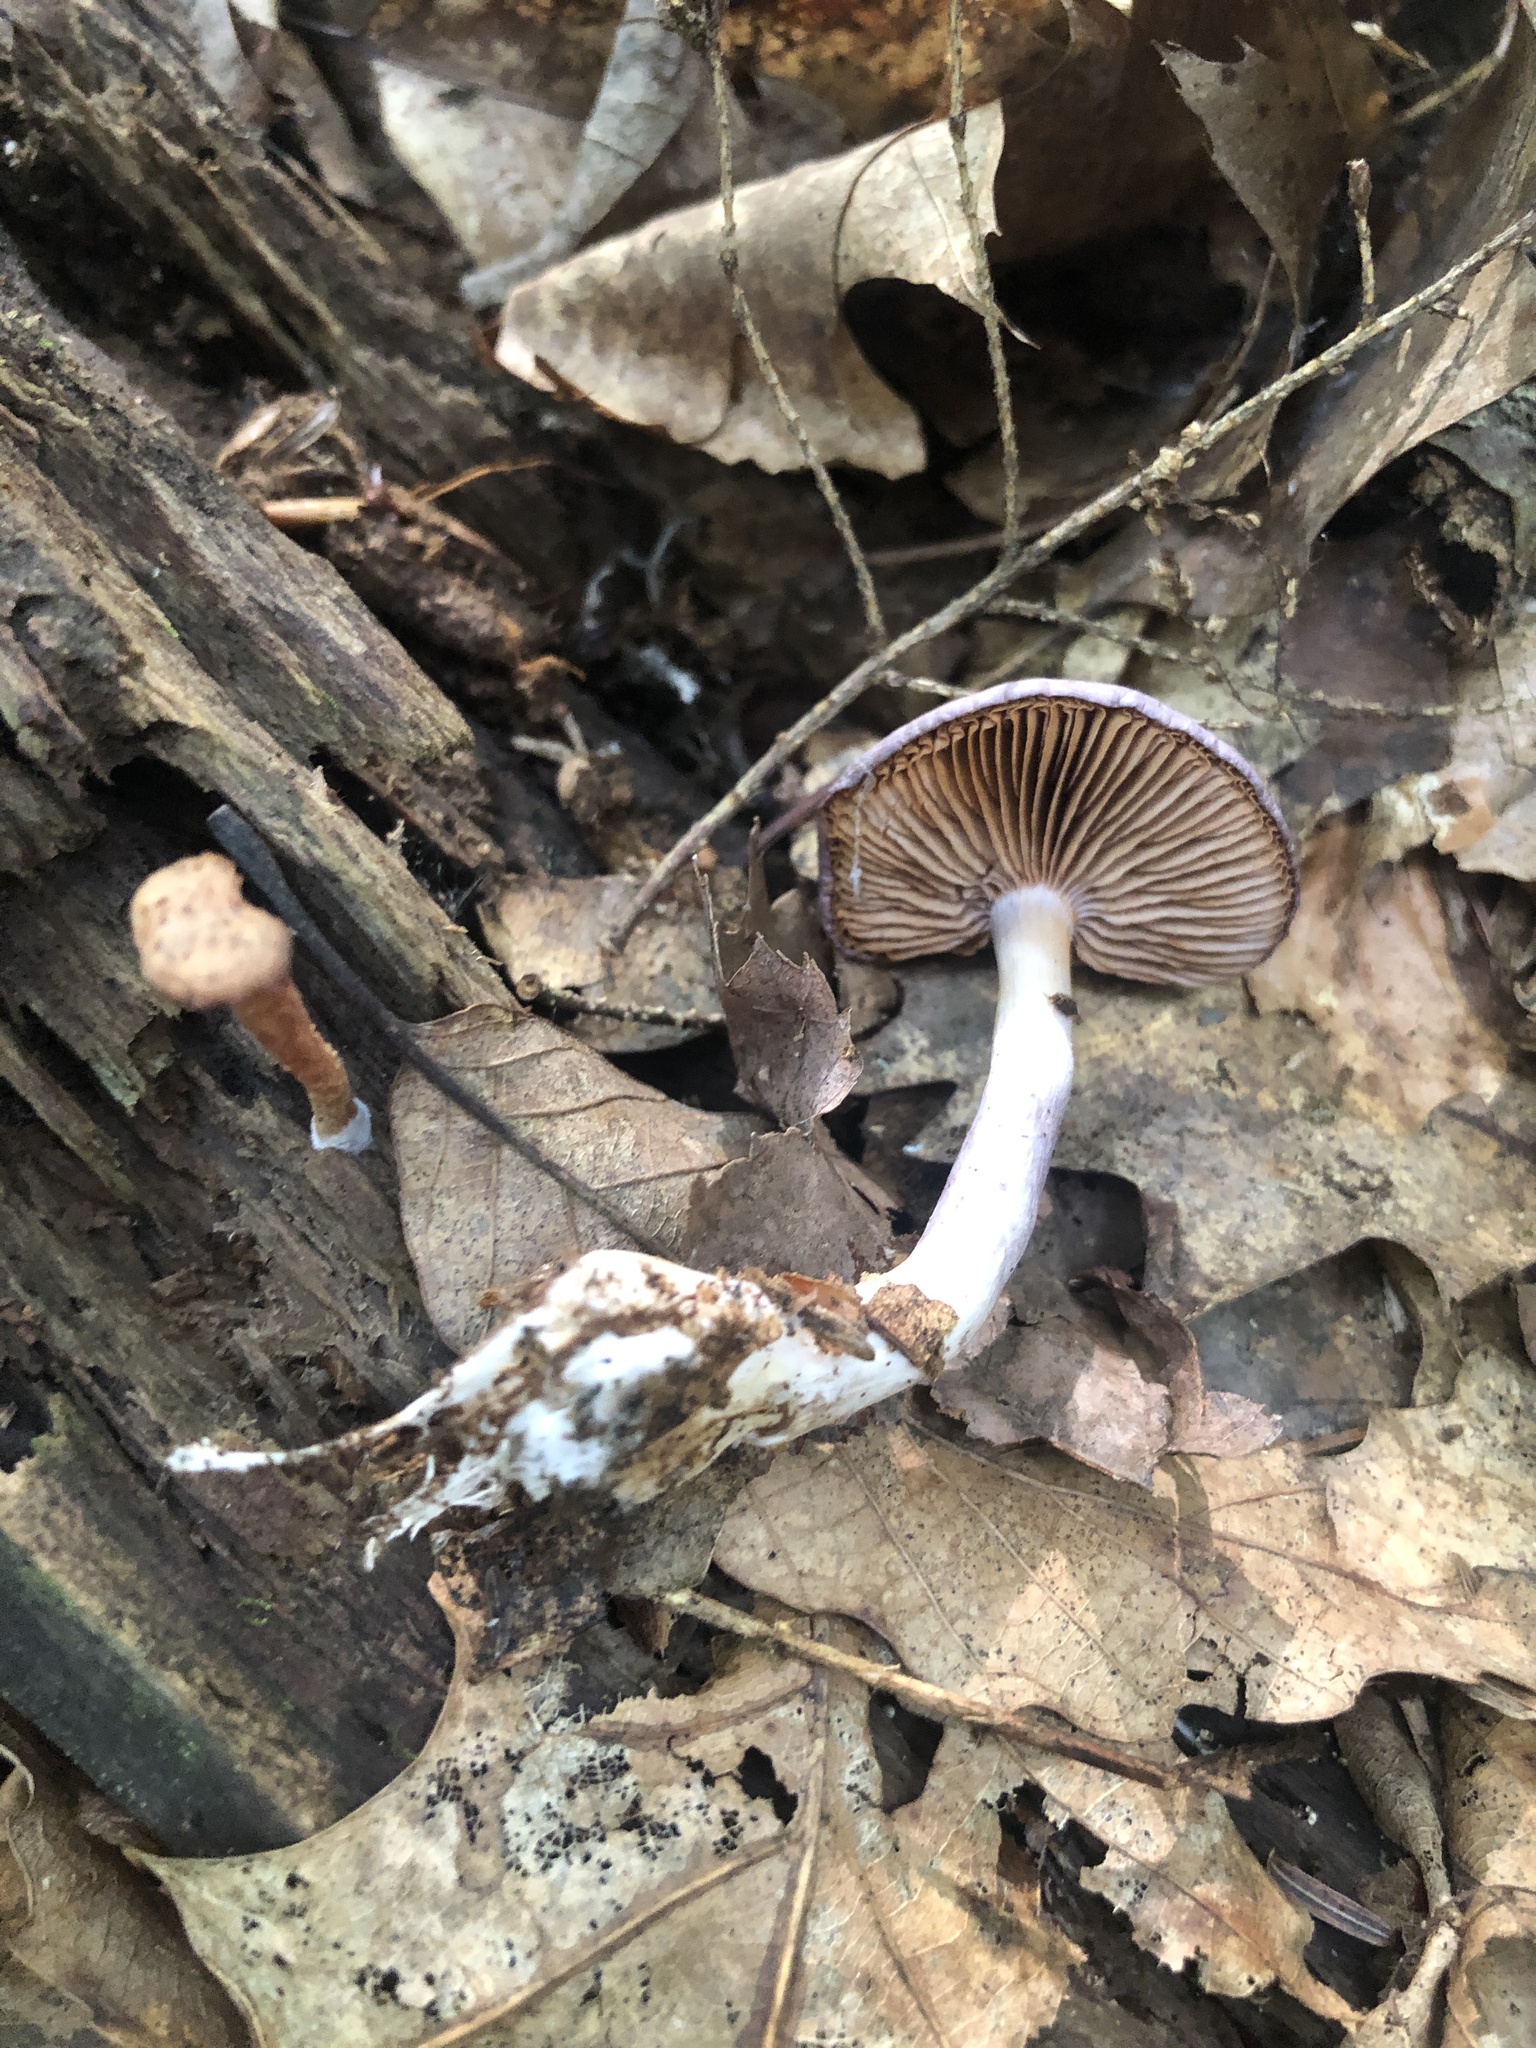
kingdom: Fungi
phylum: Basidiomycota
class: Agaricomycetes
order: Agaricales
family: Cortinariaceae
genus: Cortinarius
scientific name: Cortinarius iodes
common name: Viscid violet cort
